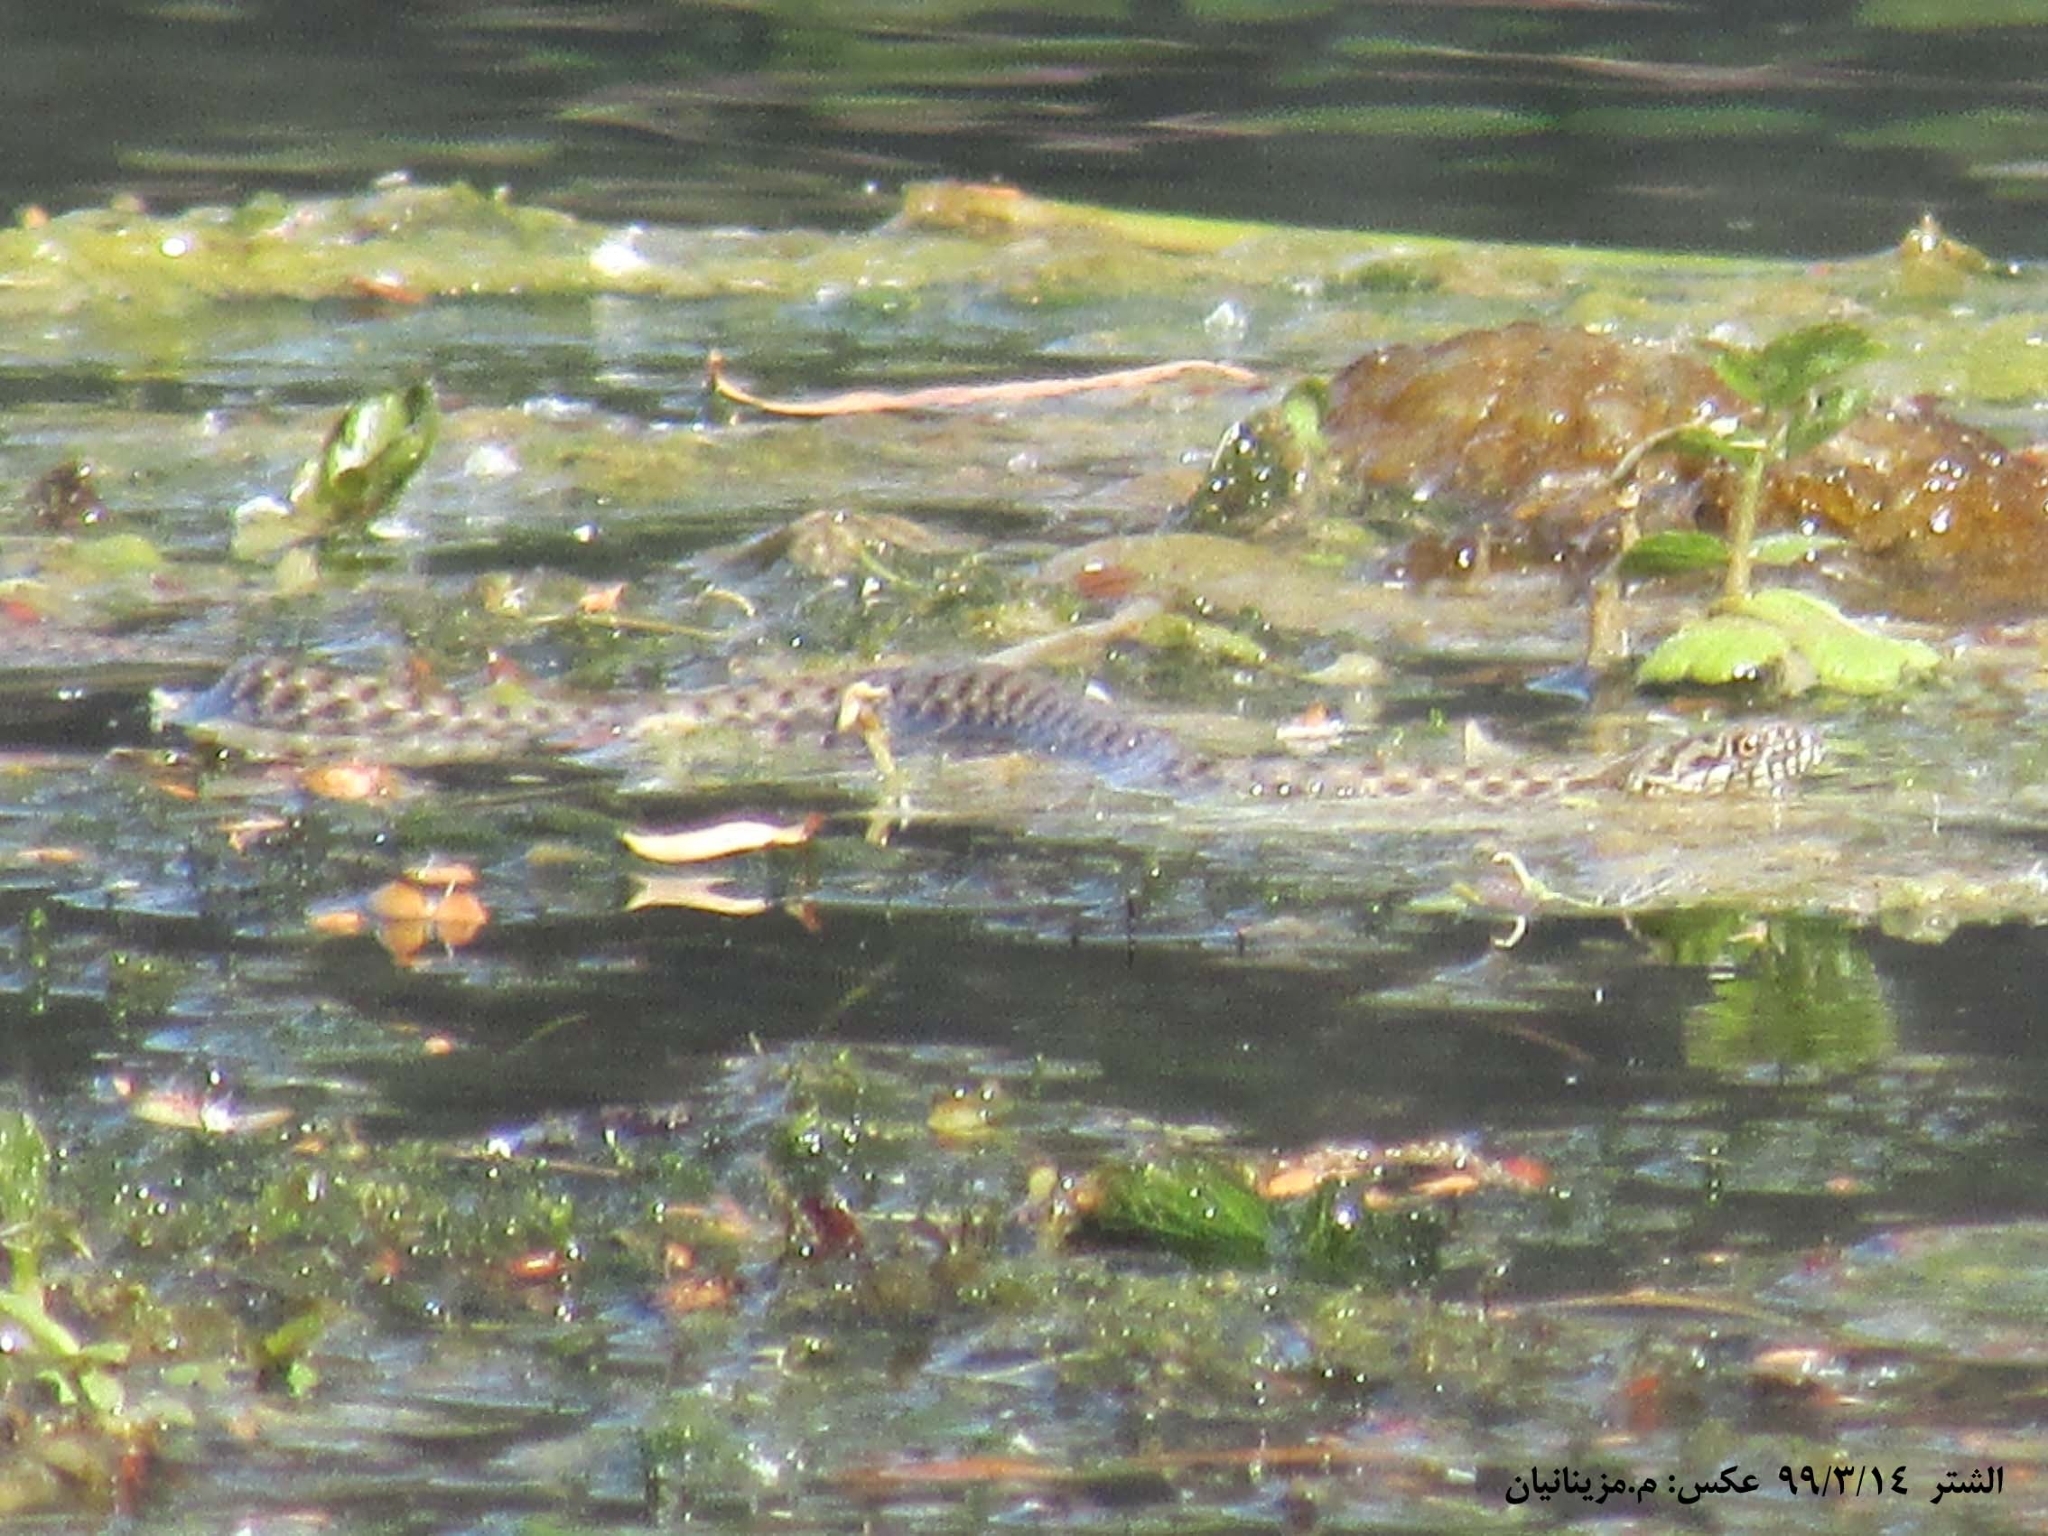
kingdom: Animalia
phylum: Chordata
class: Squamata
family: Colubridae
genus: Natrix
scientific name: Natrix tessellata
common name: Dice snake
